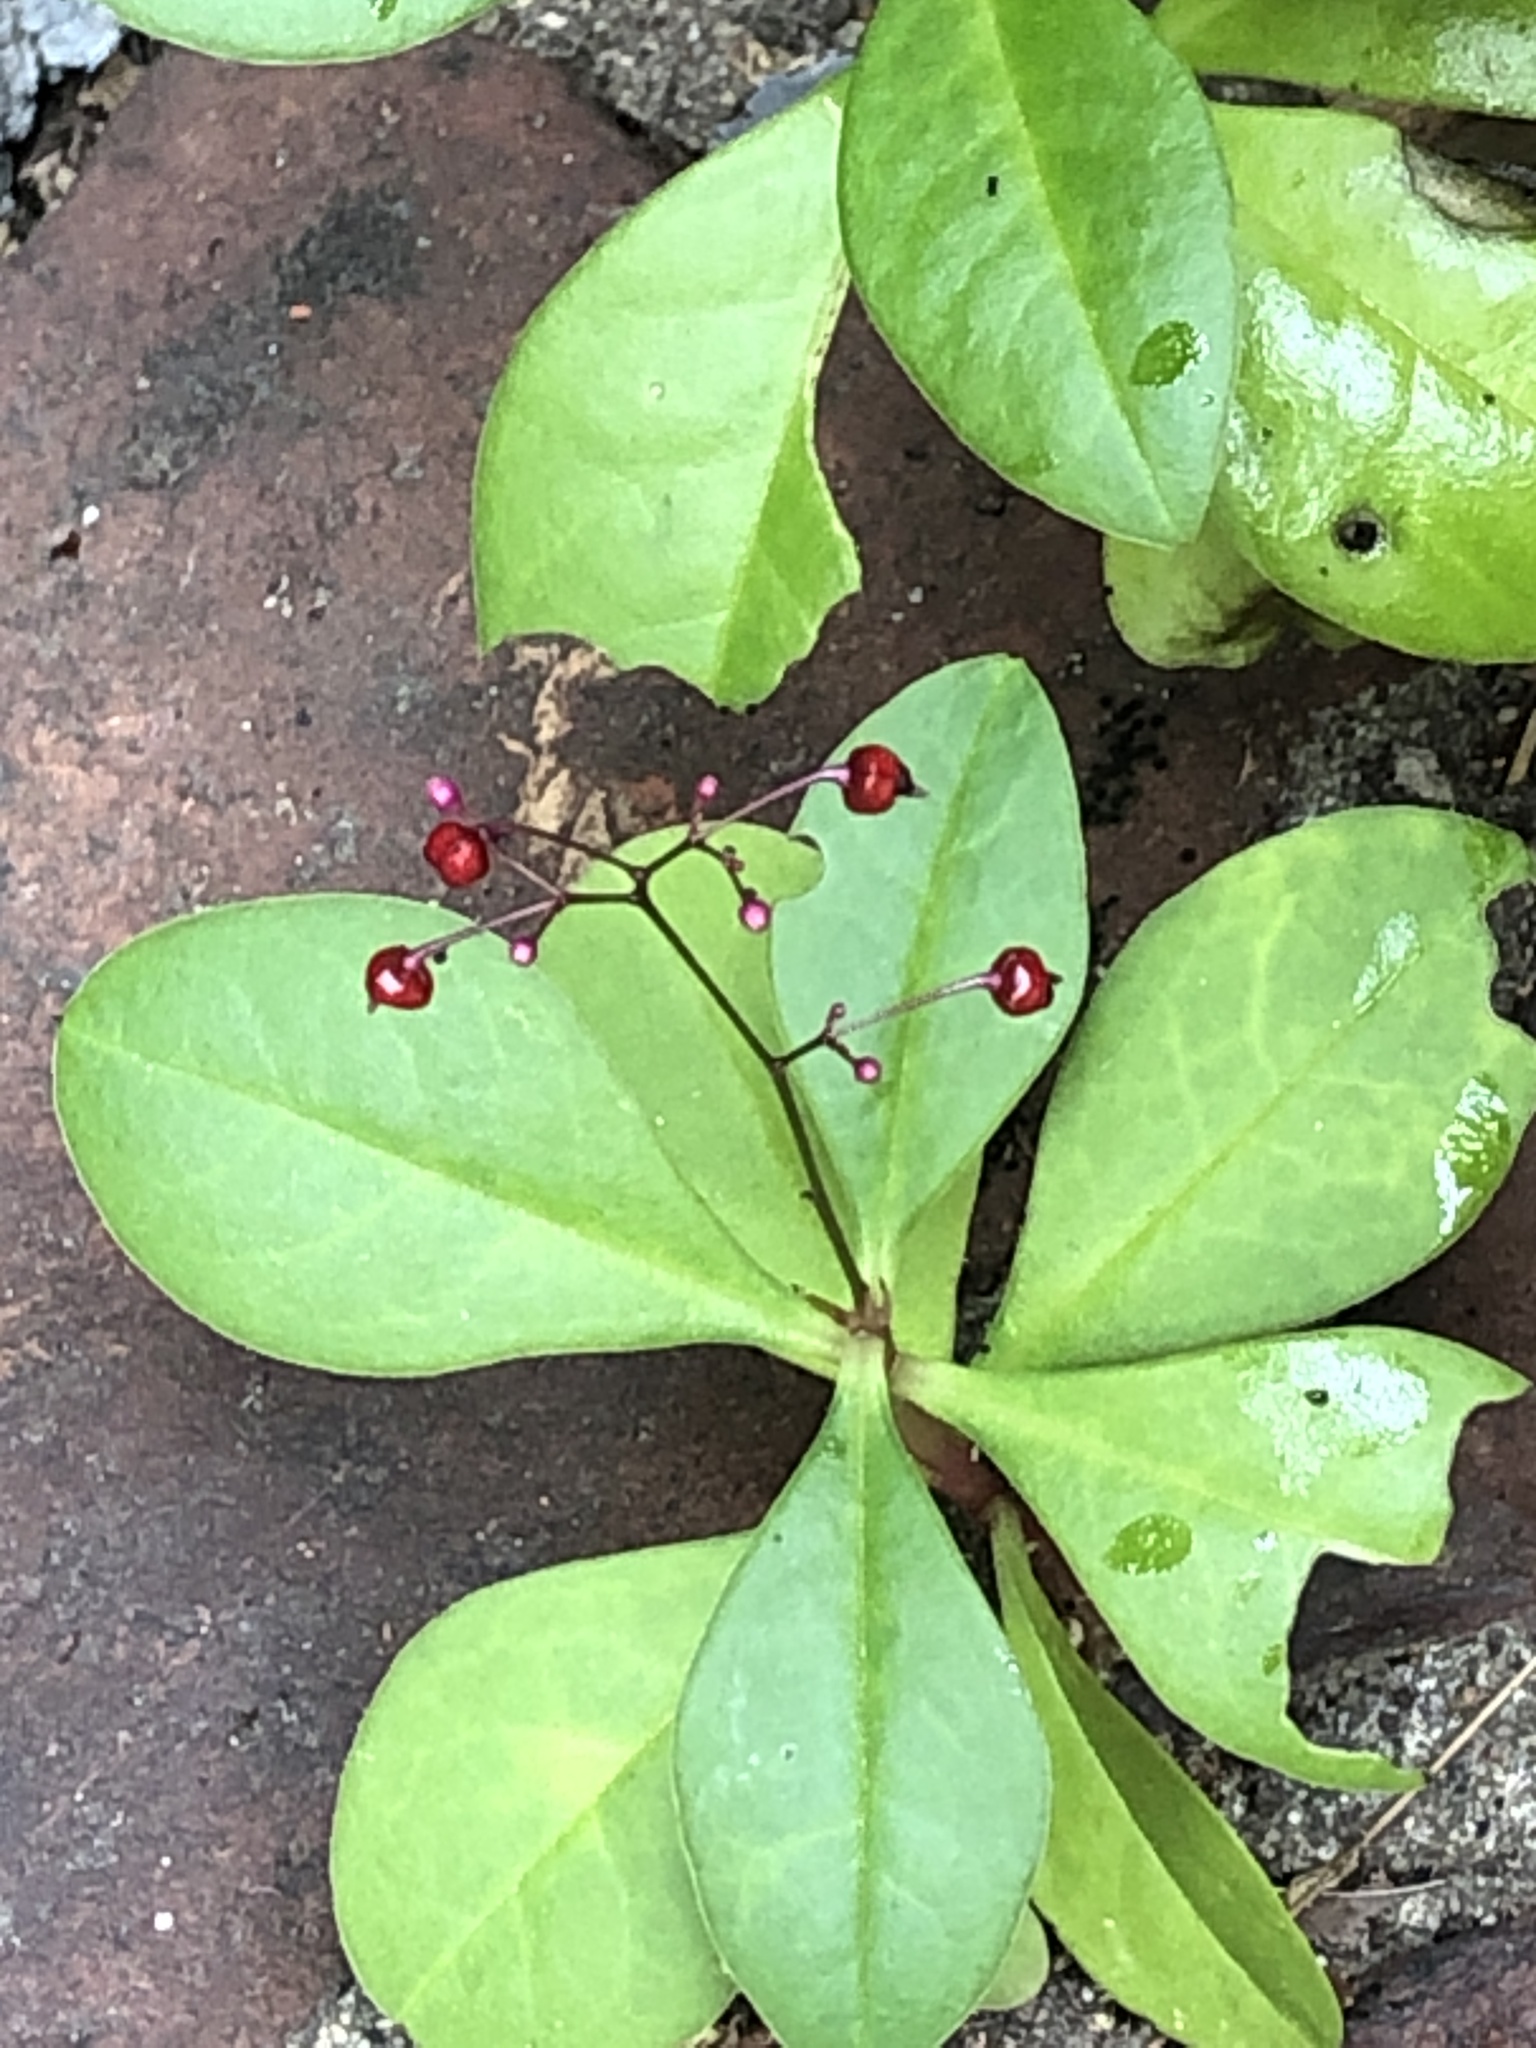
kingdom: Plantae
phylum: Tracheophyta
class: Magnoliopsida
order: Caryophyllales
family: Talinaceae
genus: Talinum
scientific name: Talinum paniculatum
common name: Jewels of opar
